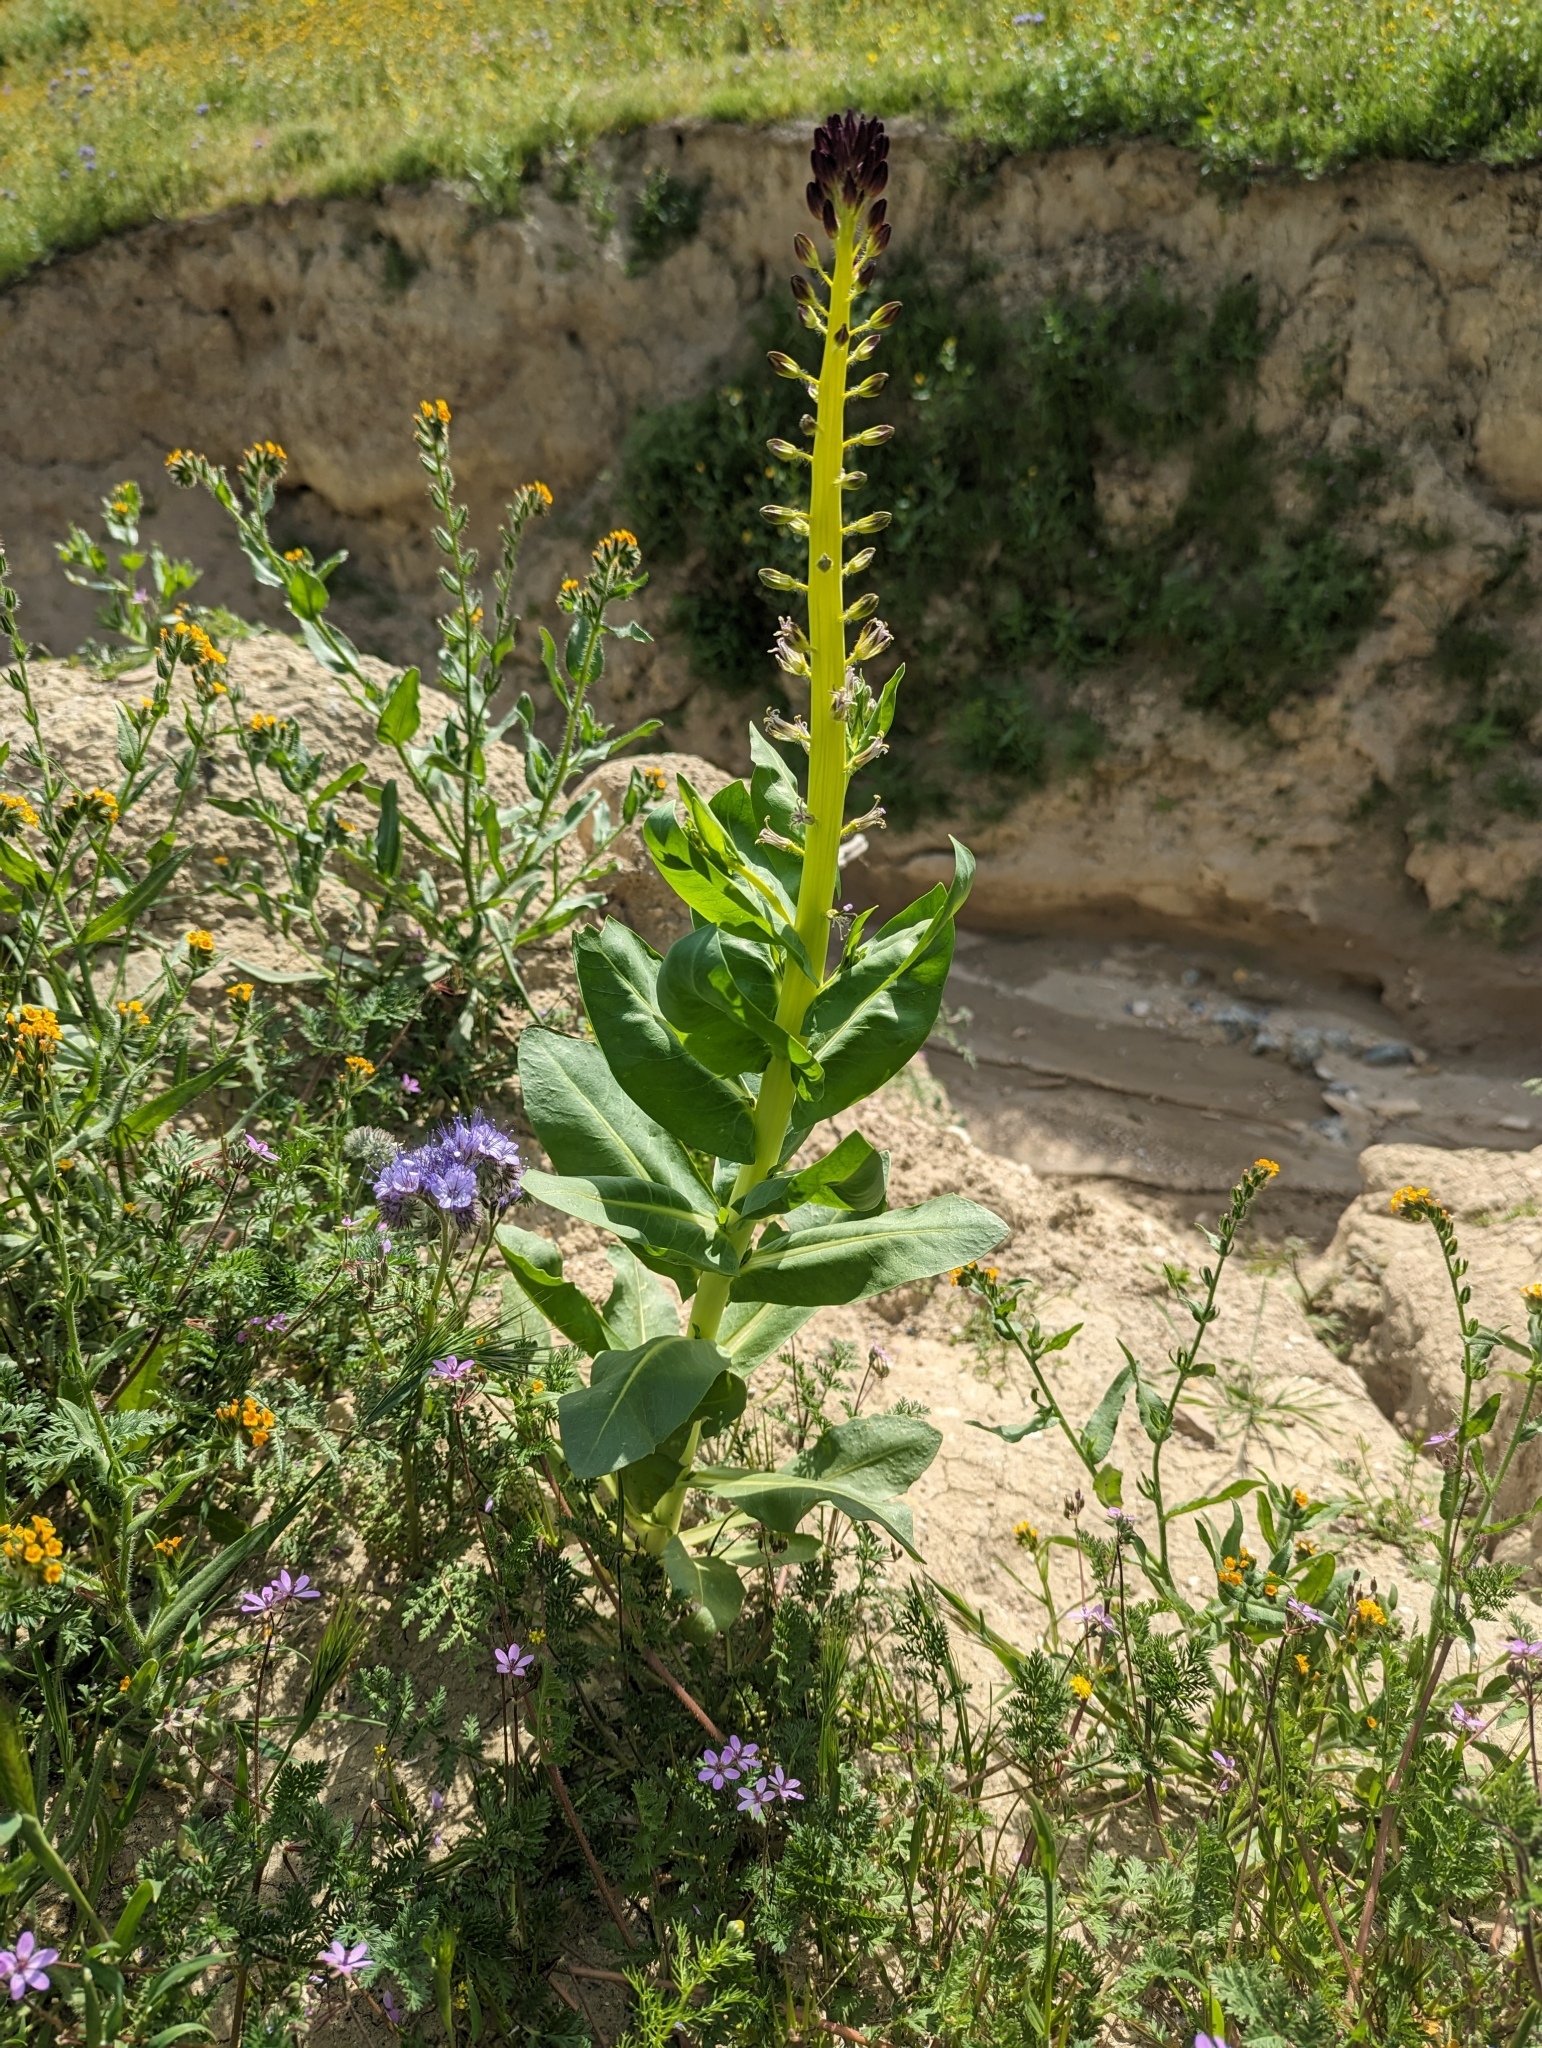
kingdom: Plantae
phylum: Tracheophyta
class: Magnoliopsida
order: Brassicales
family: Brassicaceae
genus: Streptanthus
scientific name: Streptanthus inflatus
